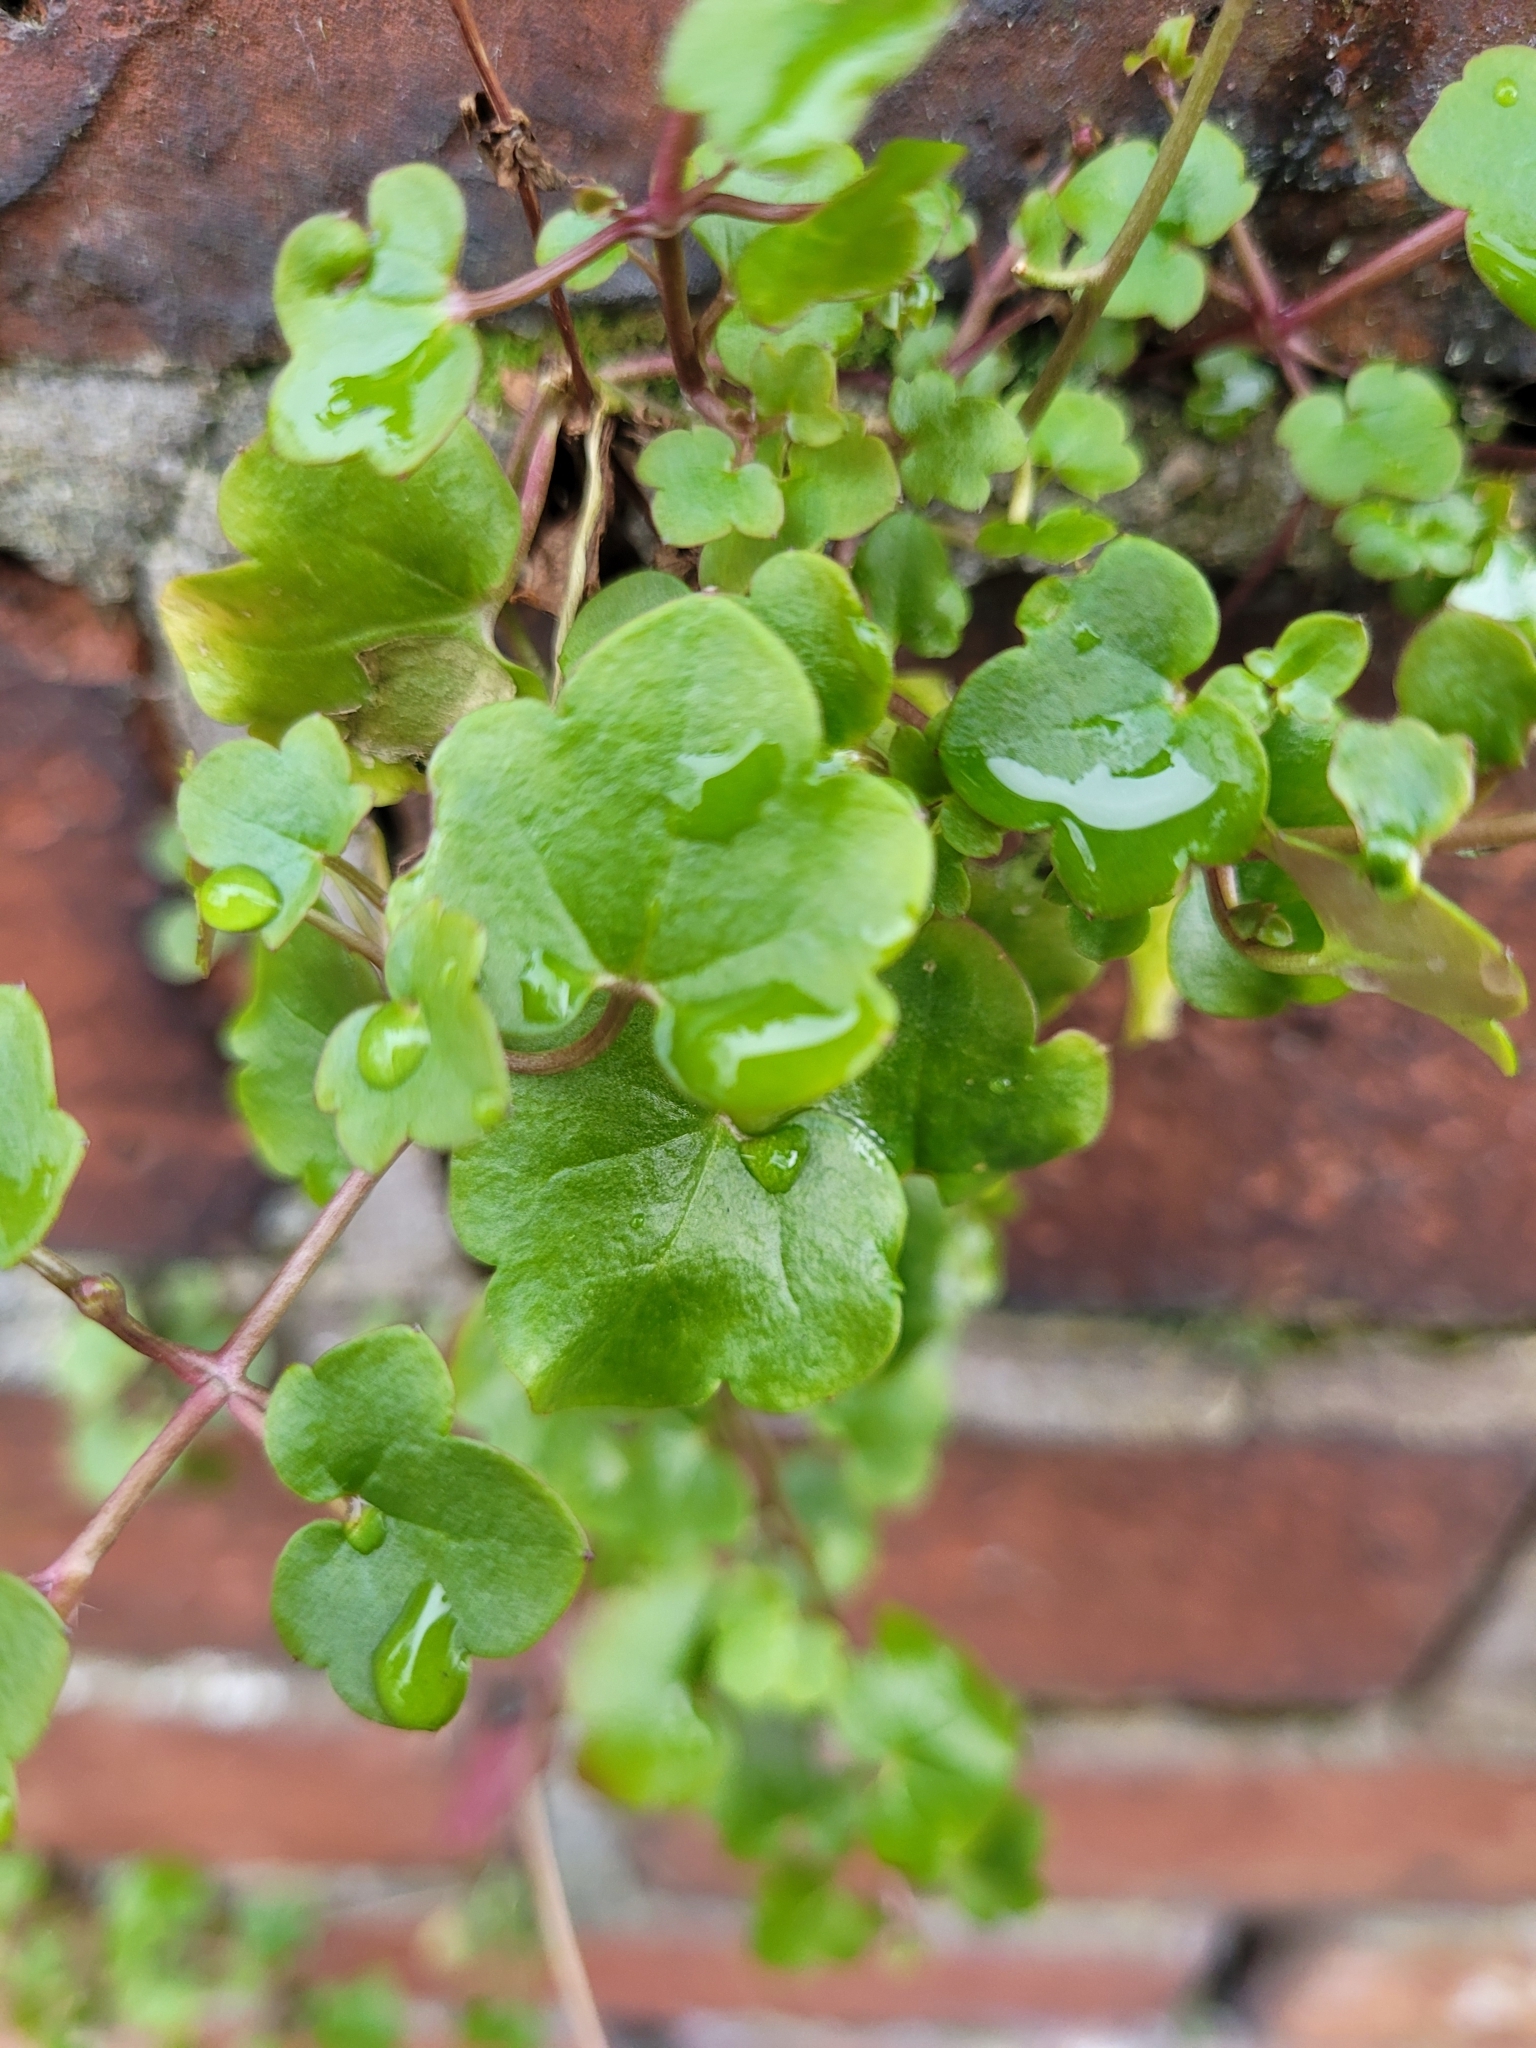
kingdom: Plantae
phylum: Tracheophyta
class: Magnoliopsida
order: Lamiales
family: Plantaginaceae
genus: Cymbalaria
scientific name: Cymbalaria muralis
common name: Ivy-leaved toadflax
